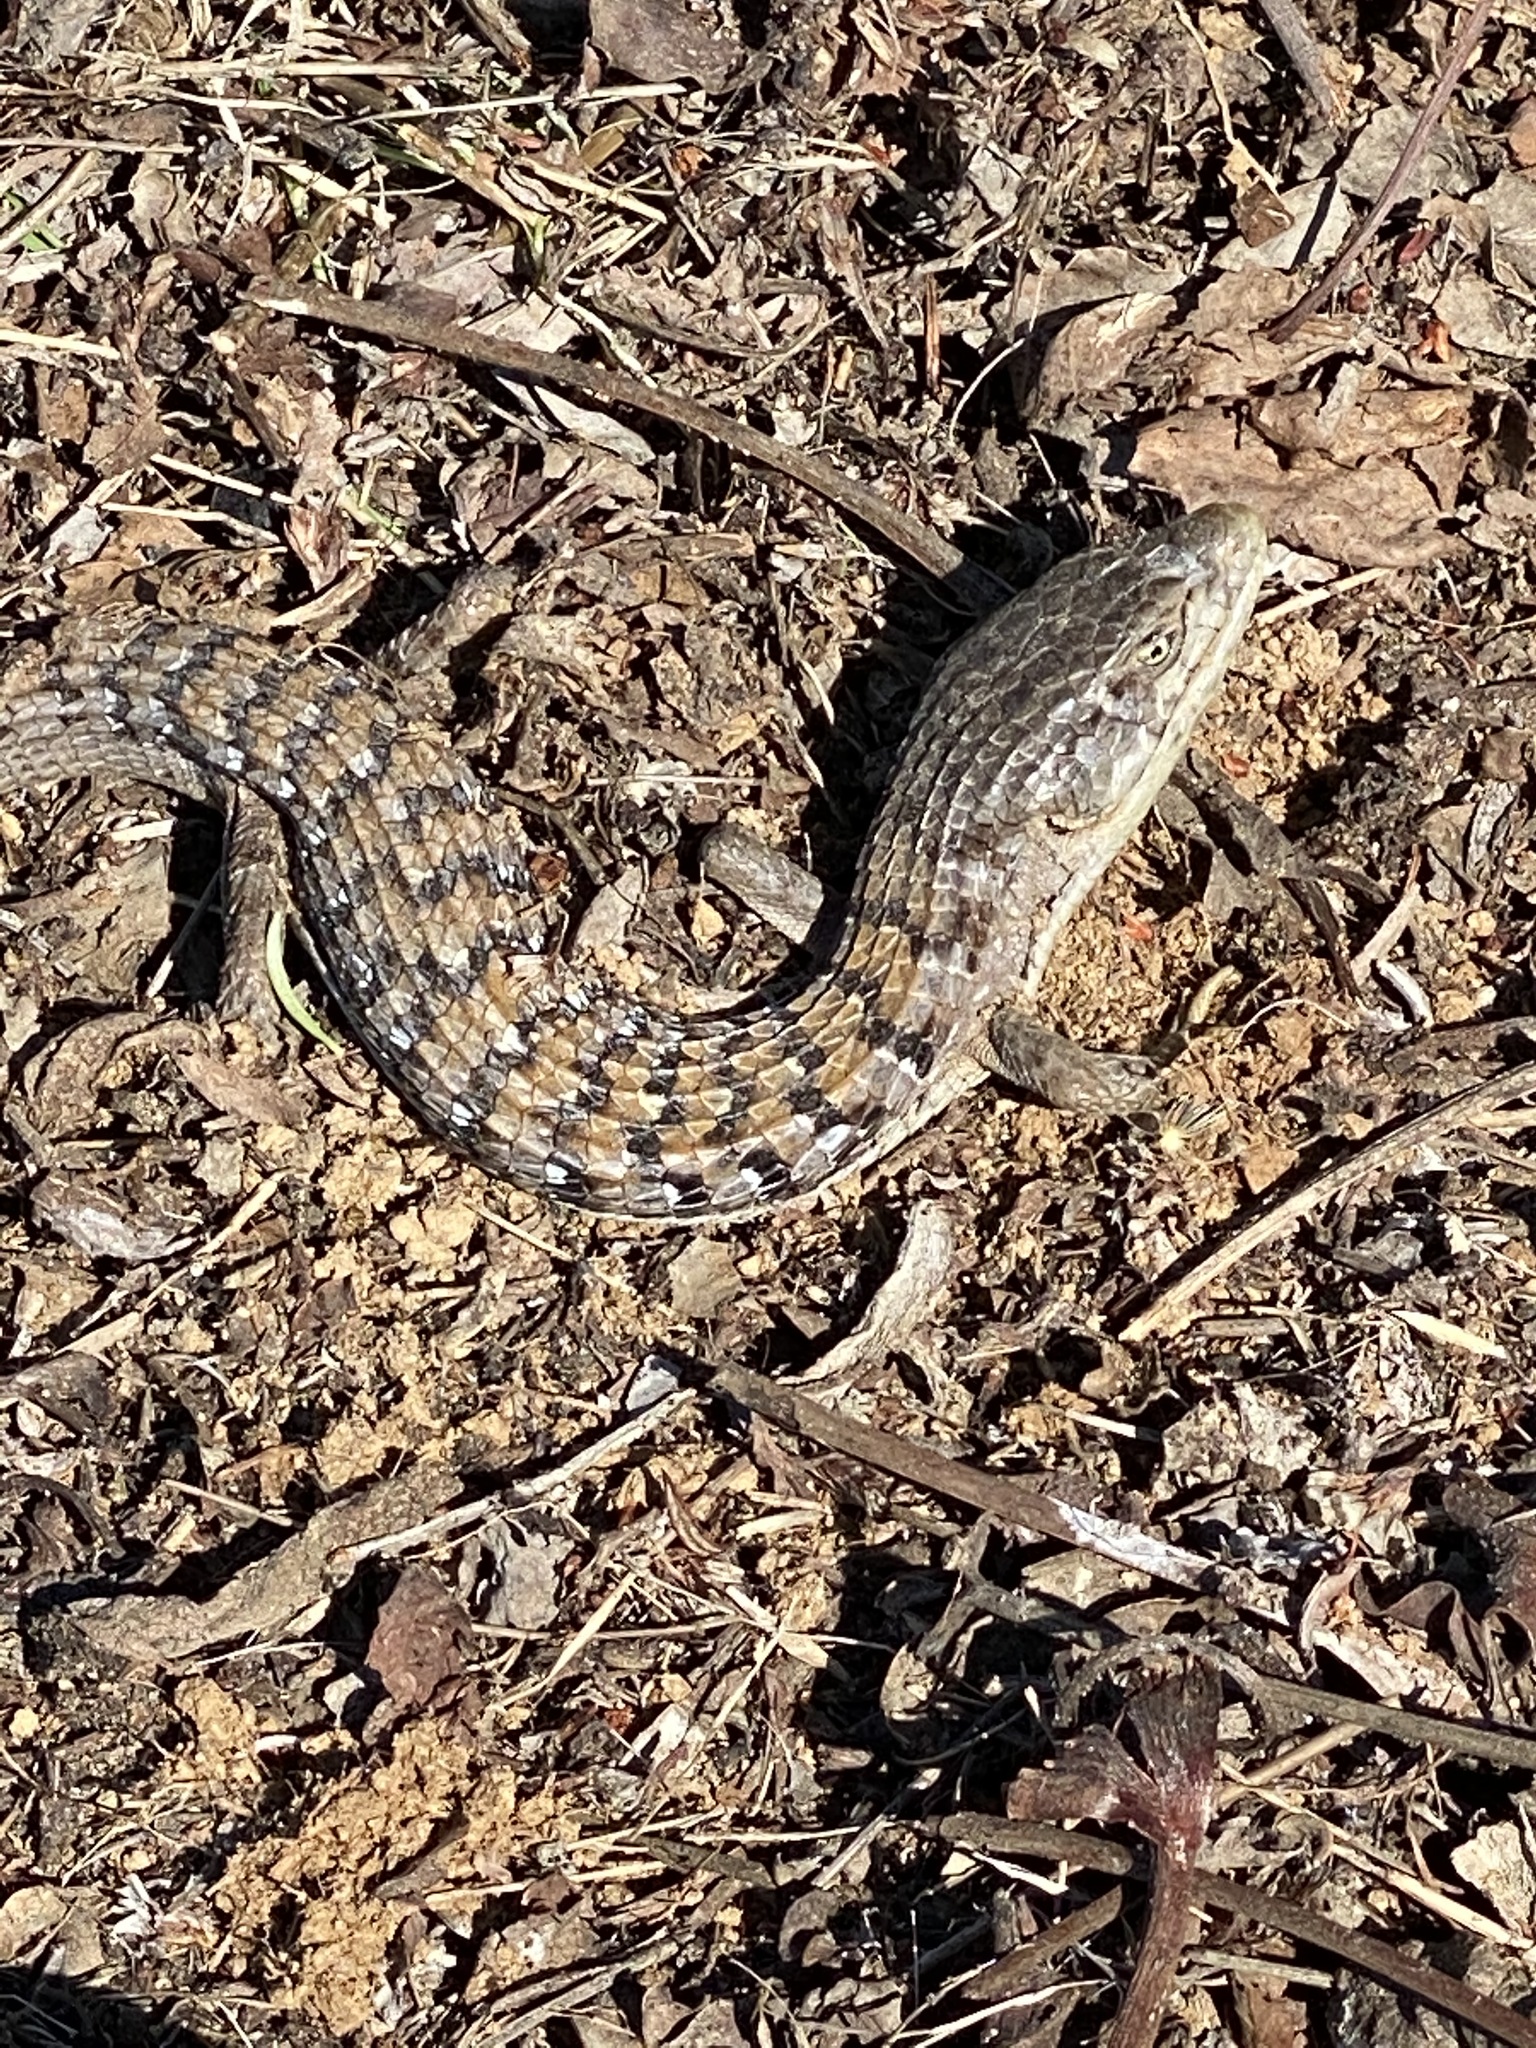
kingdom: Animalia
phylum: Chordata
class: Squamata
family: Anguidae
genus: Elgaria
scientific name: Elgaria multicarinata
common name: Southern alligator lizard
